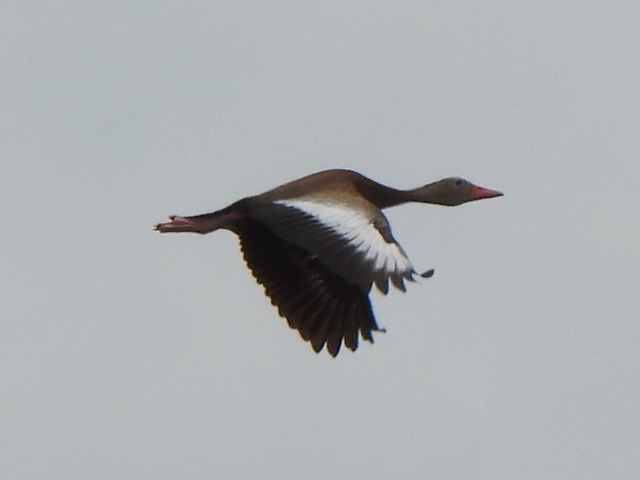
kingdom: Animalia
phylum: Chordata
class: Aves
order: Anseriformes
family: Anatidae
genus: Dendrocygna
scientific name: Dendrocygna autumnalis
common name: Black-bellied whistling duck
